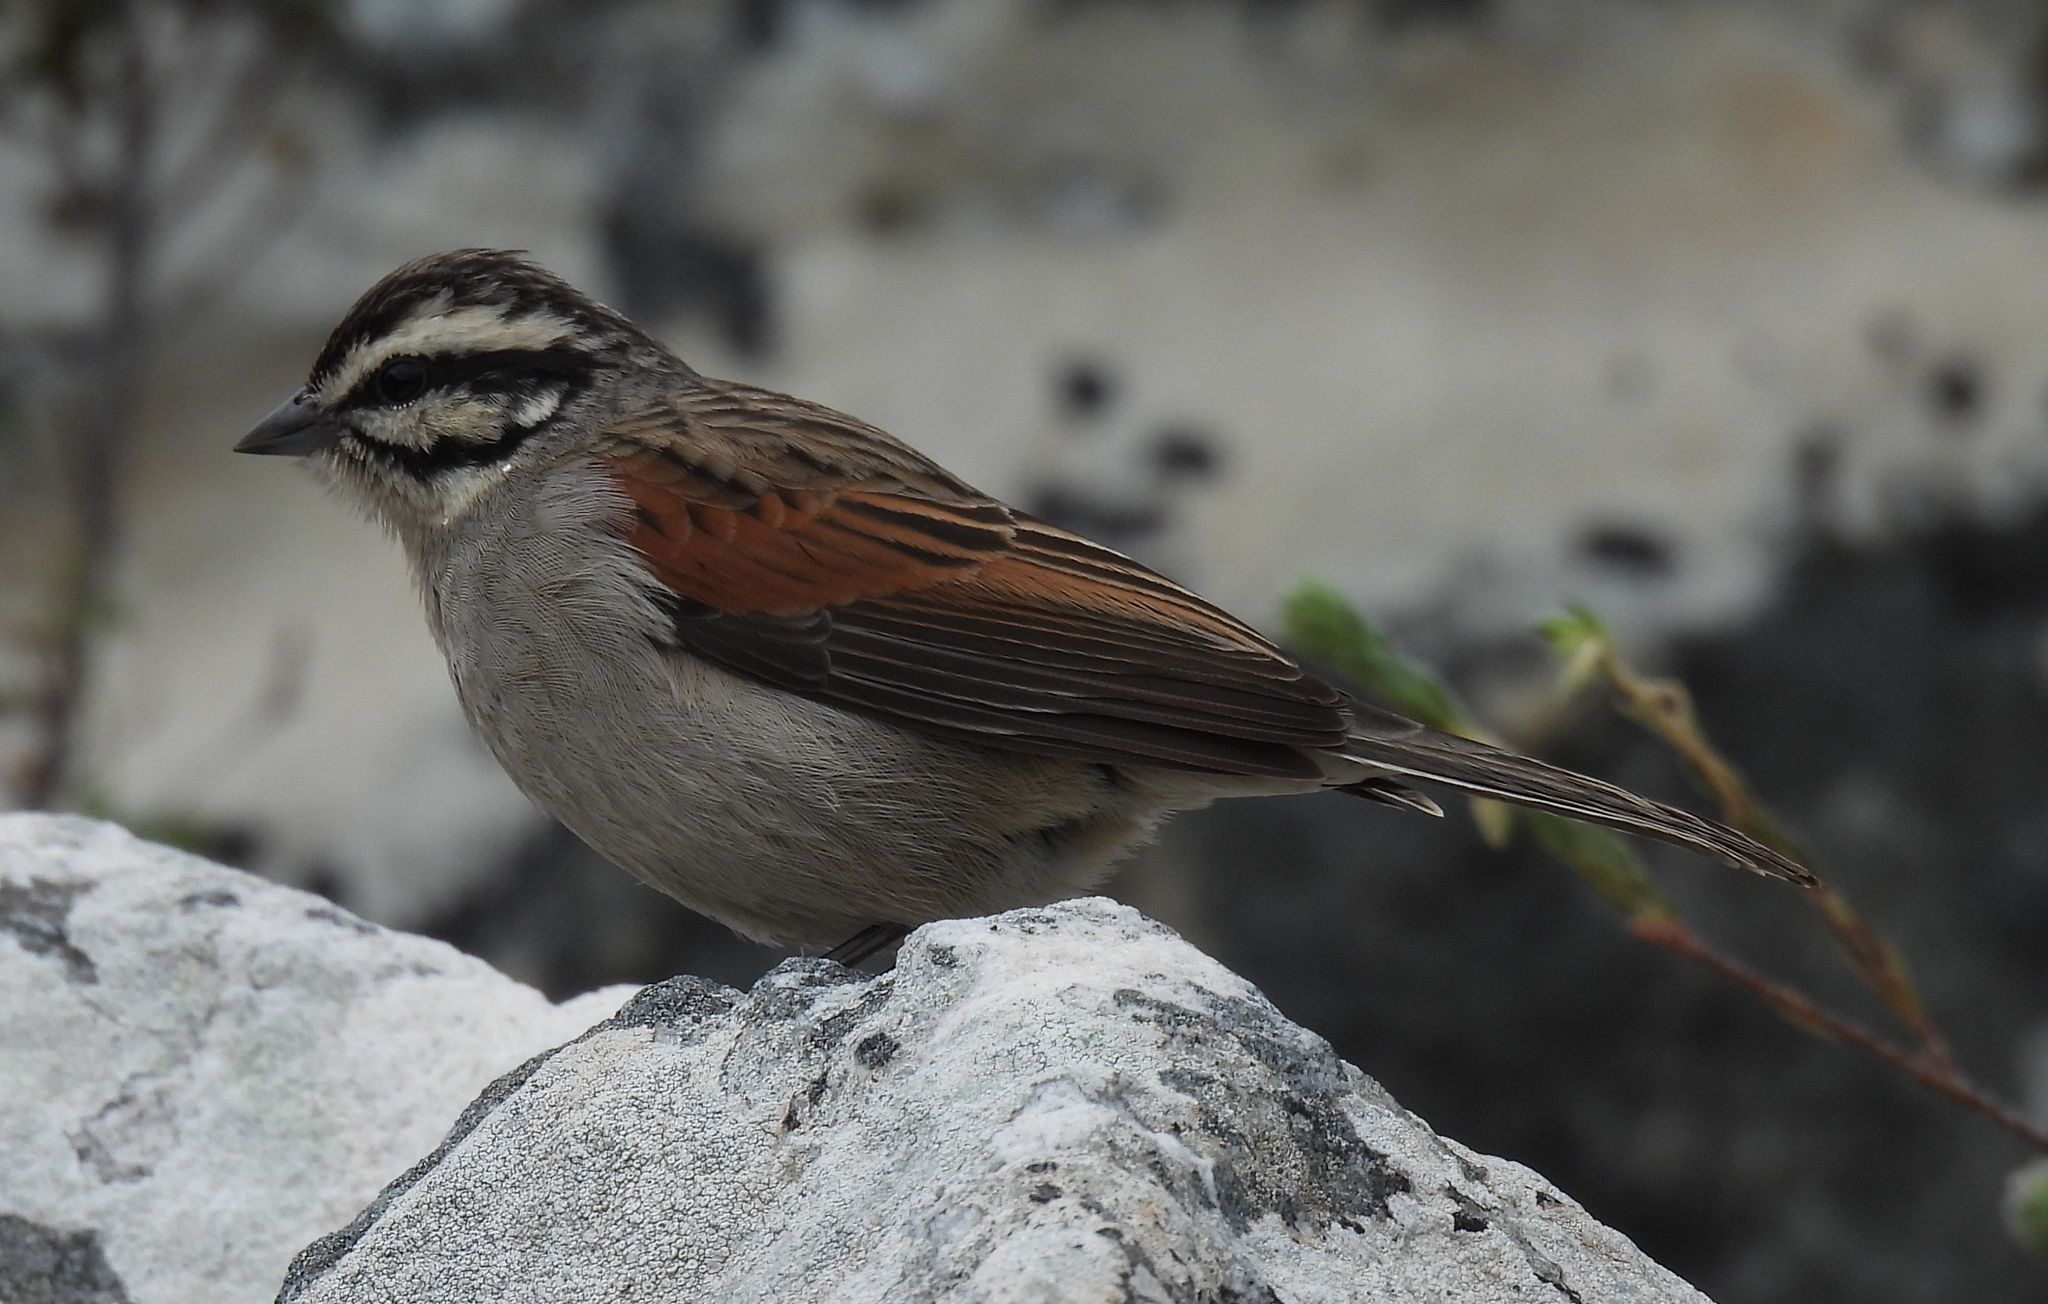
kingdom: Animalia
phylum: Chordata
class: Aves
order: Passeriformes
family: Emberizidae
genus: Emberiza
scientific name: Emberiza capensis
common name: Cape bunting
